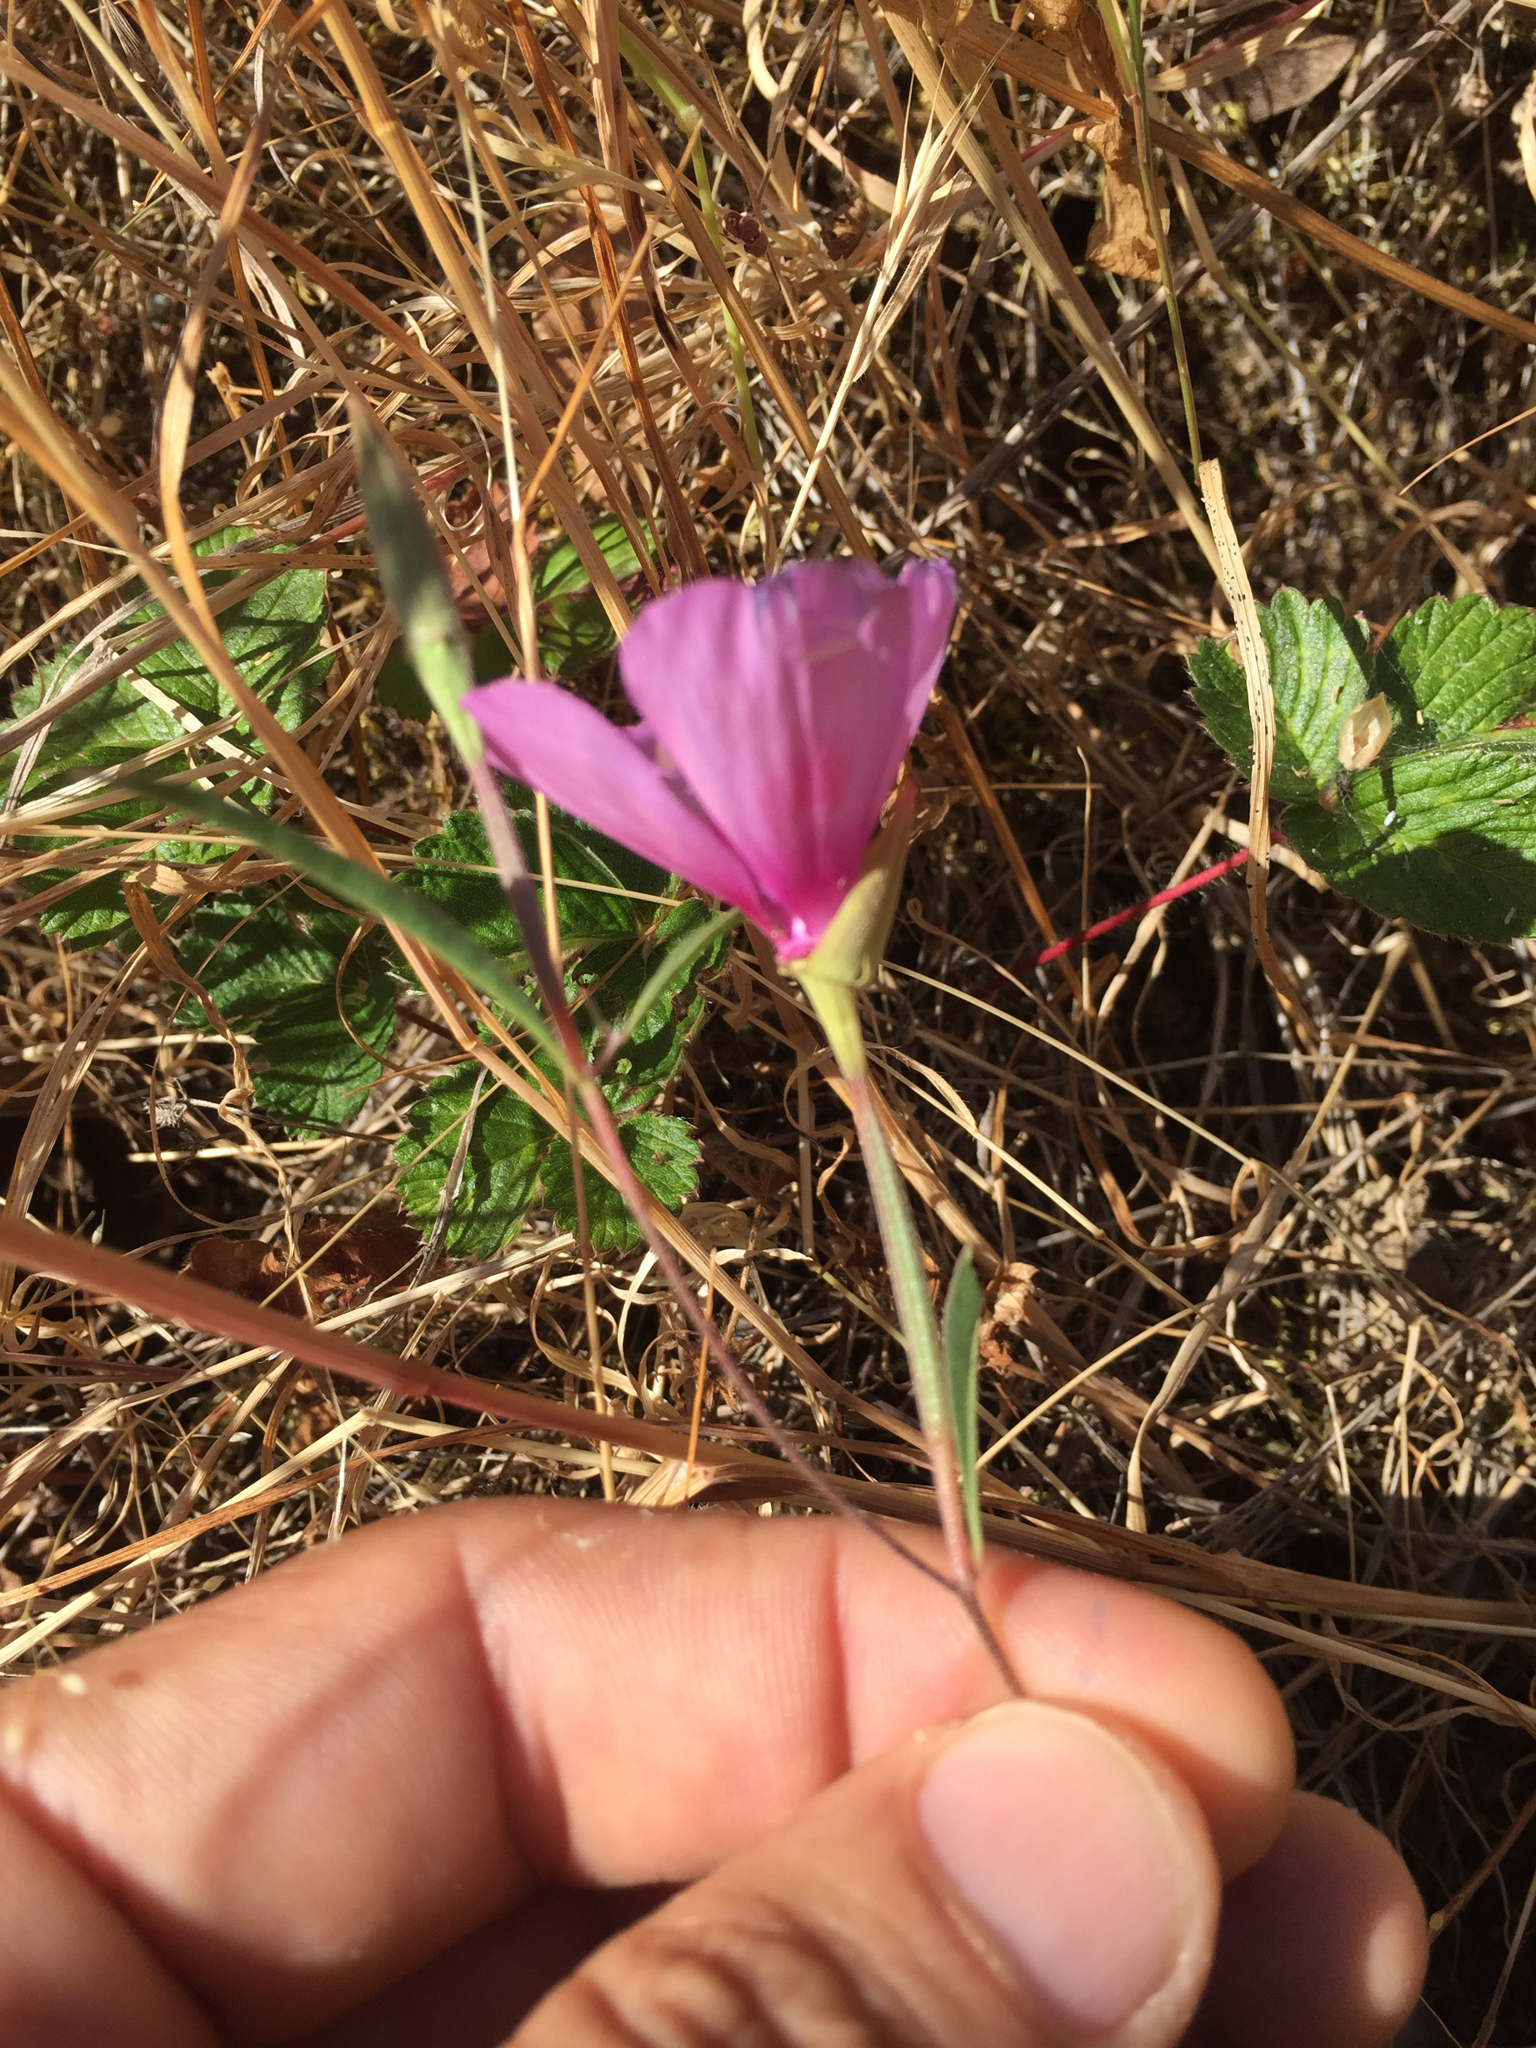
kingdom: Plantae
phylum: Tracheophyta
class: Magnoliopsida
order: Myrtales
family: Onagraceae
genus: Clarkia
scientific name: Clarkia amoena
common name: Godetia
